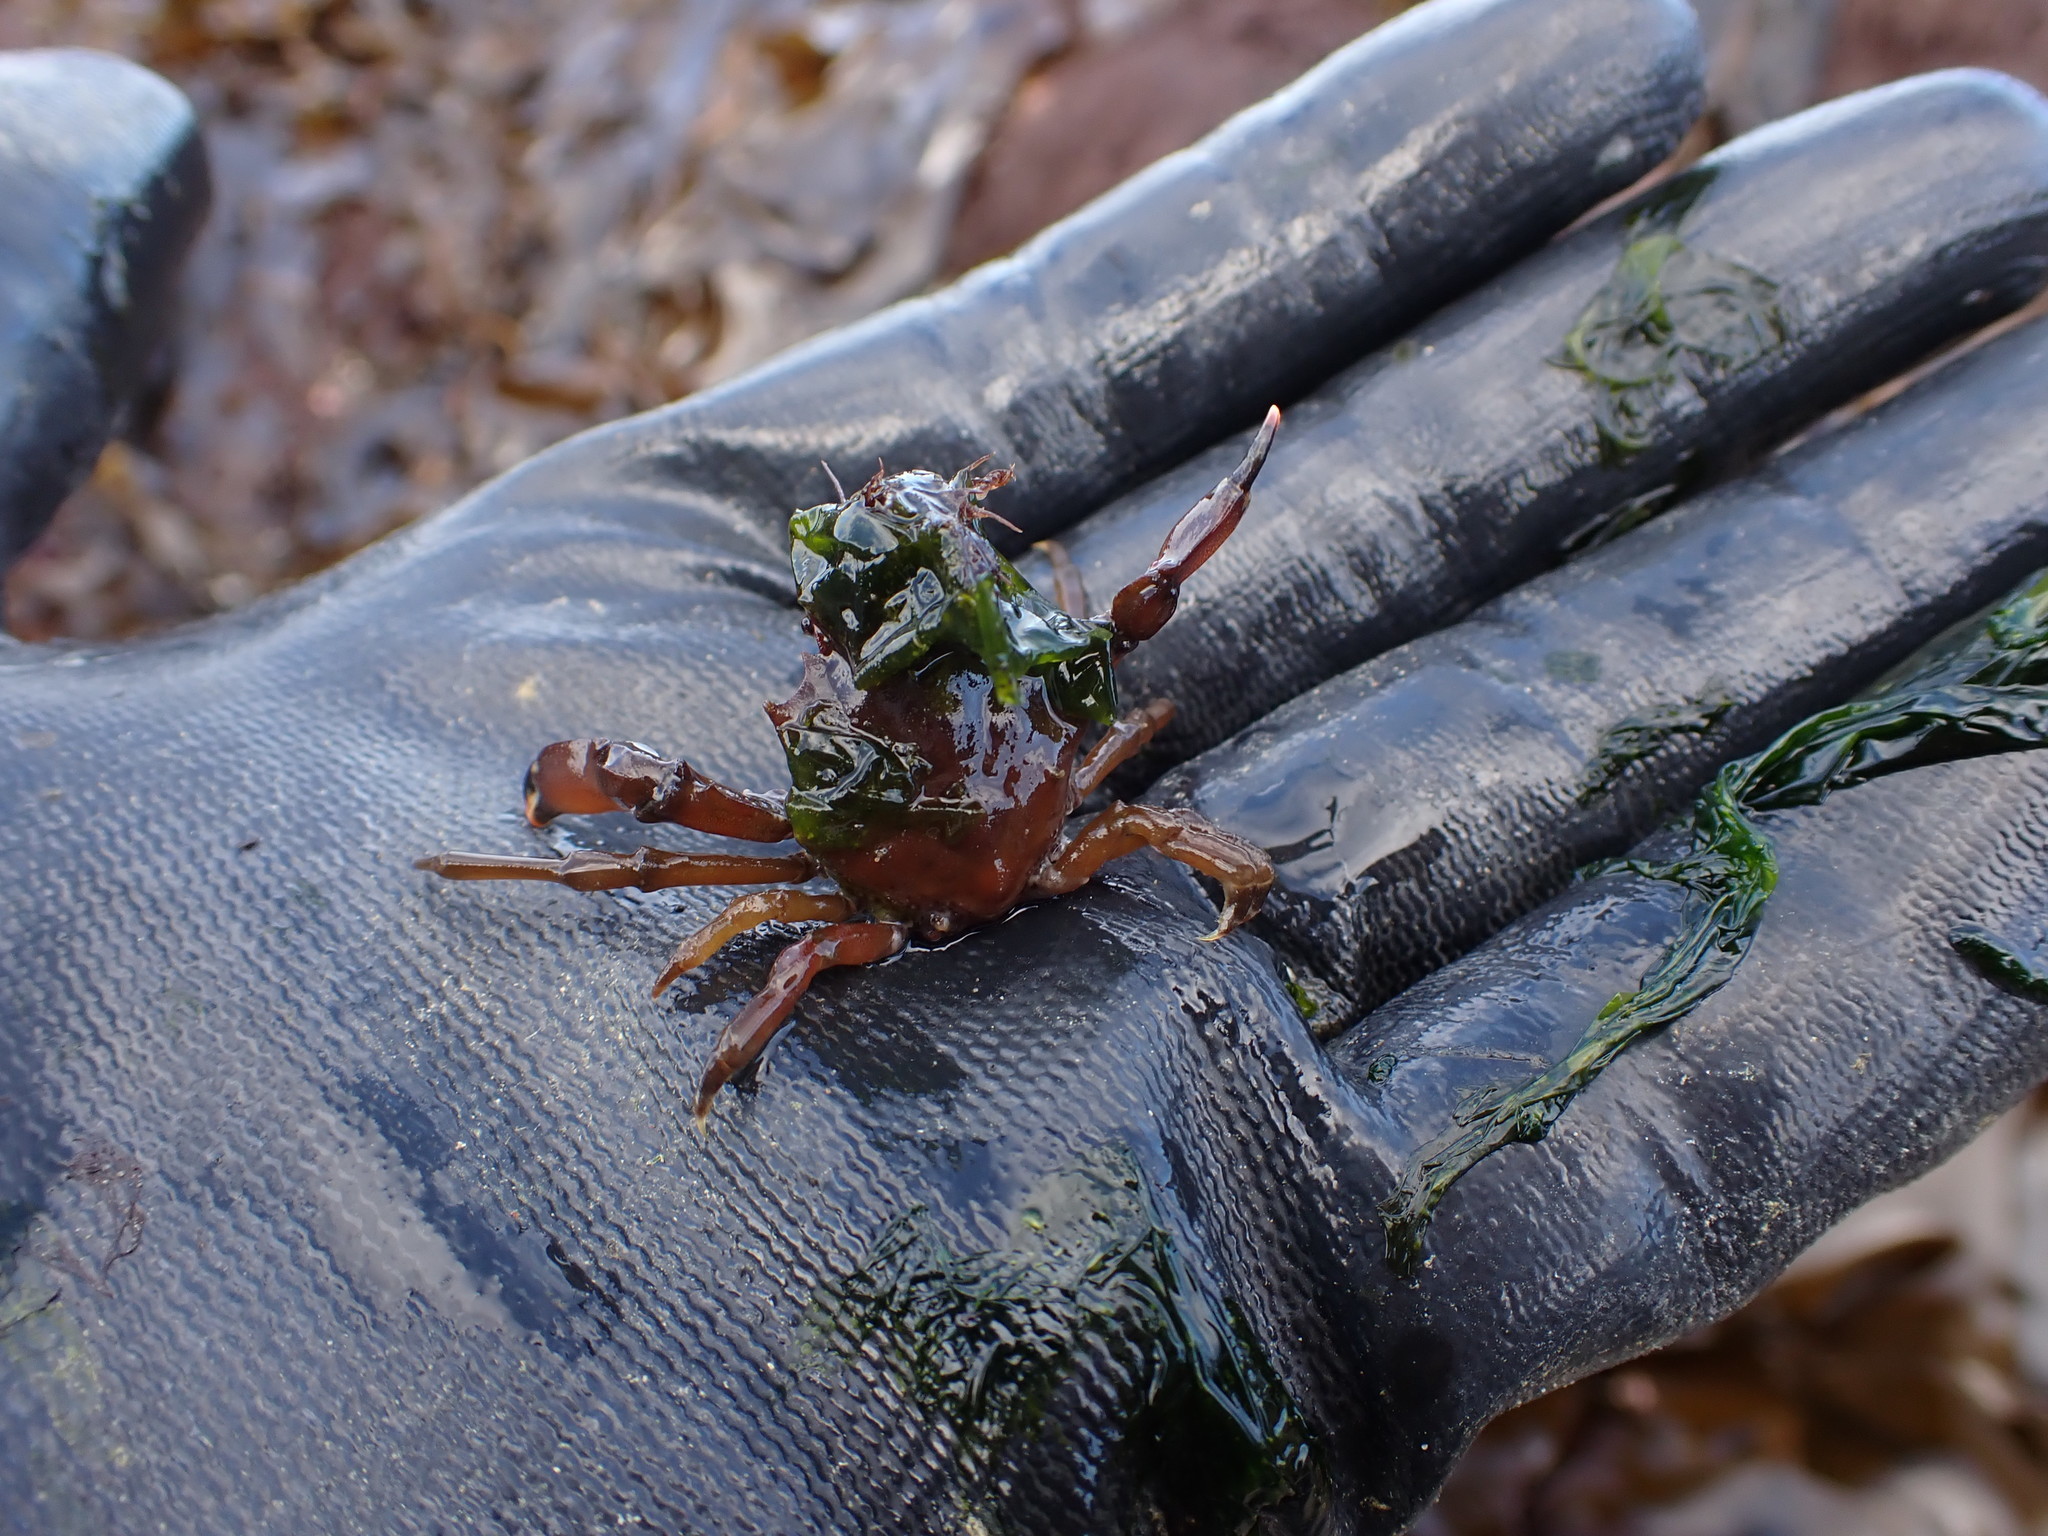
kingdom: Animalia
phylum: Arthropoda
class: Malacostraca
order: Decapoda
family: Epialtidae
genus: Pugettia
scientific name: Pugettia gracilis
